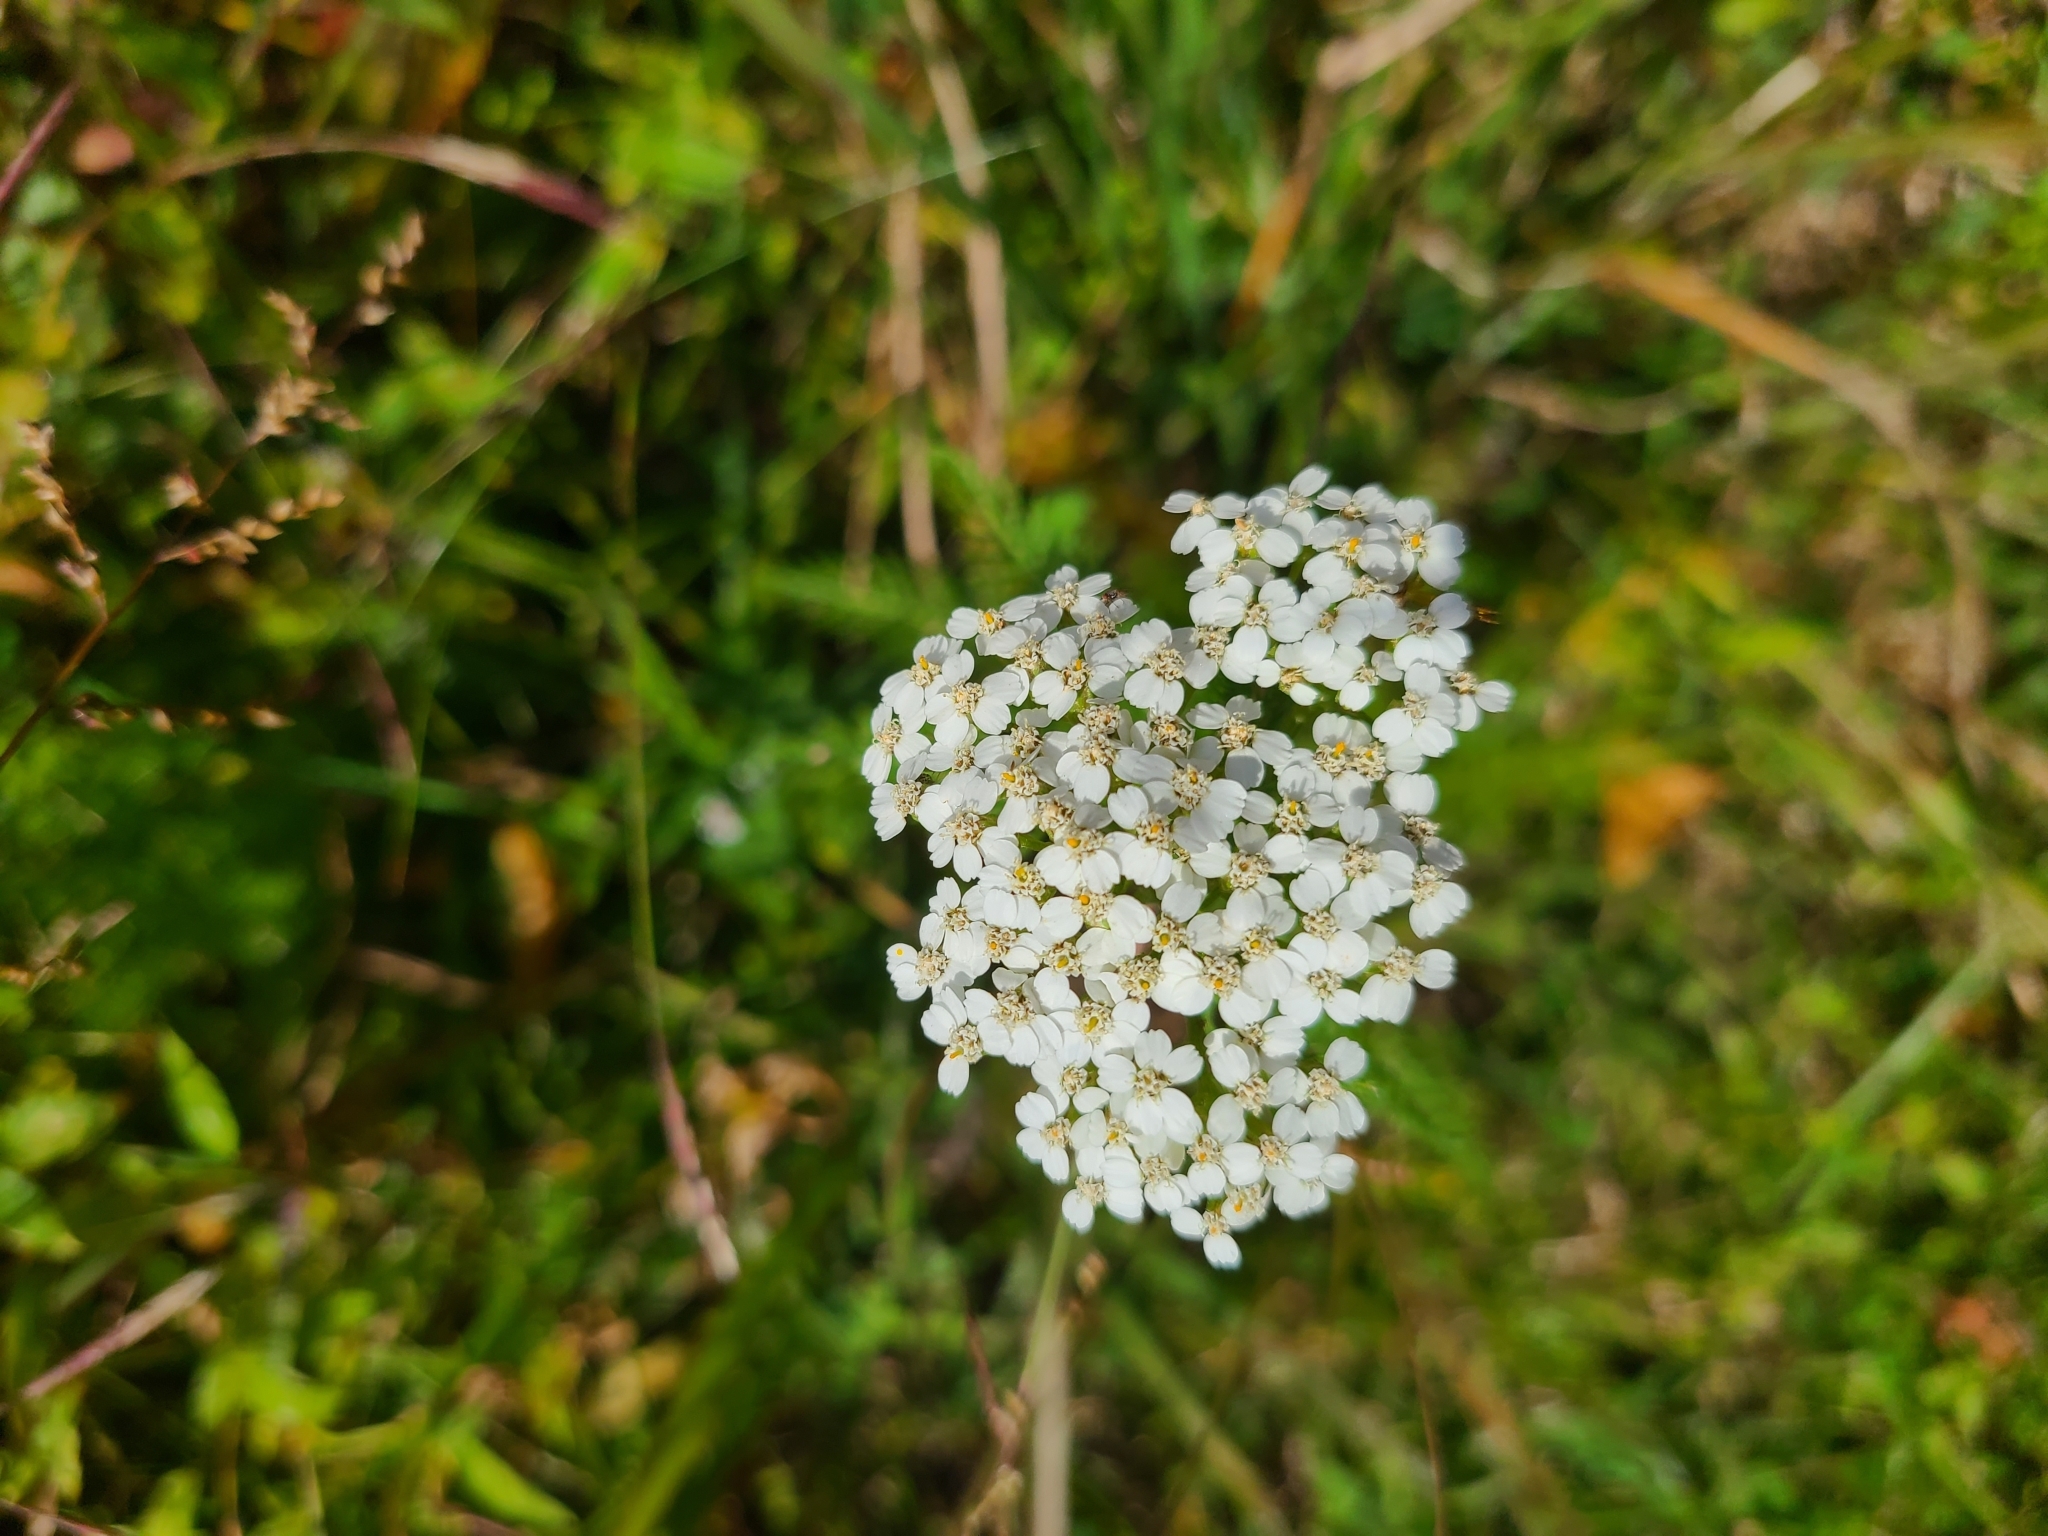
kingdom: Plantae
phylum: Tracheophyta
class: Magnoliopsida
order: Asterales
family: Asteraceae
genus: Achillea
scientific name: Achillea millefolium
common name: Yarrow
